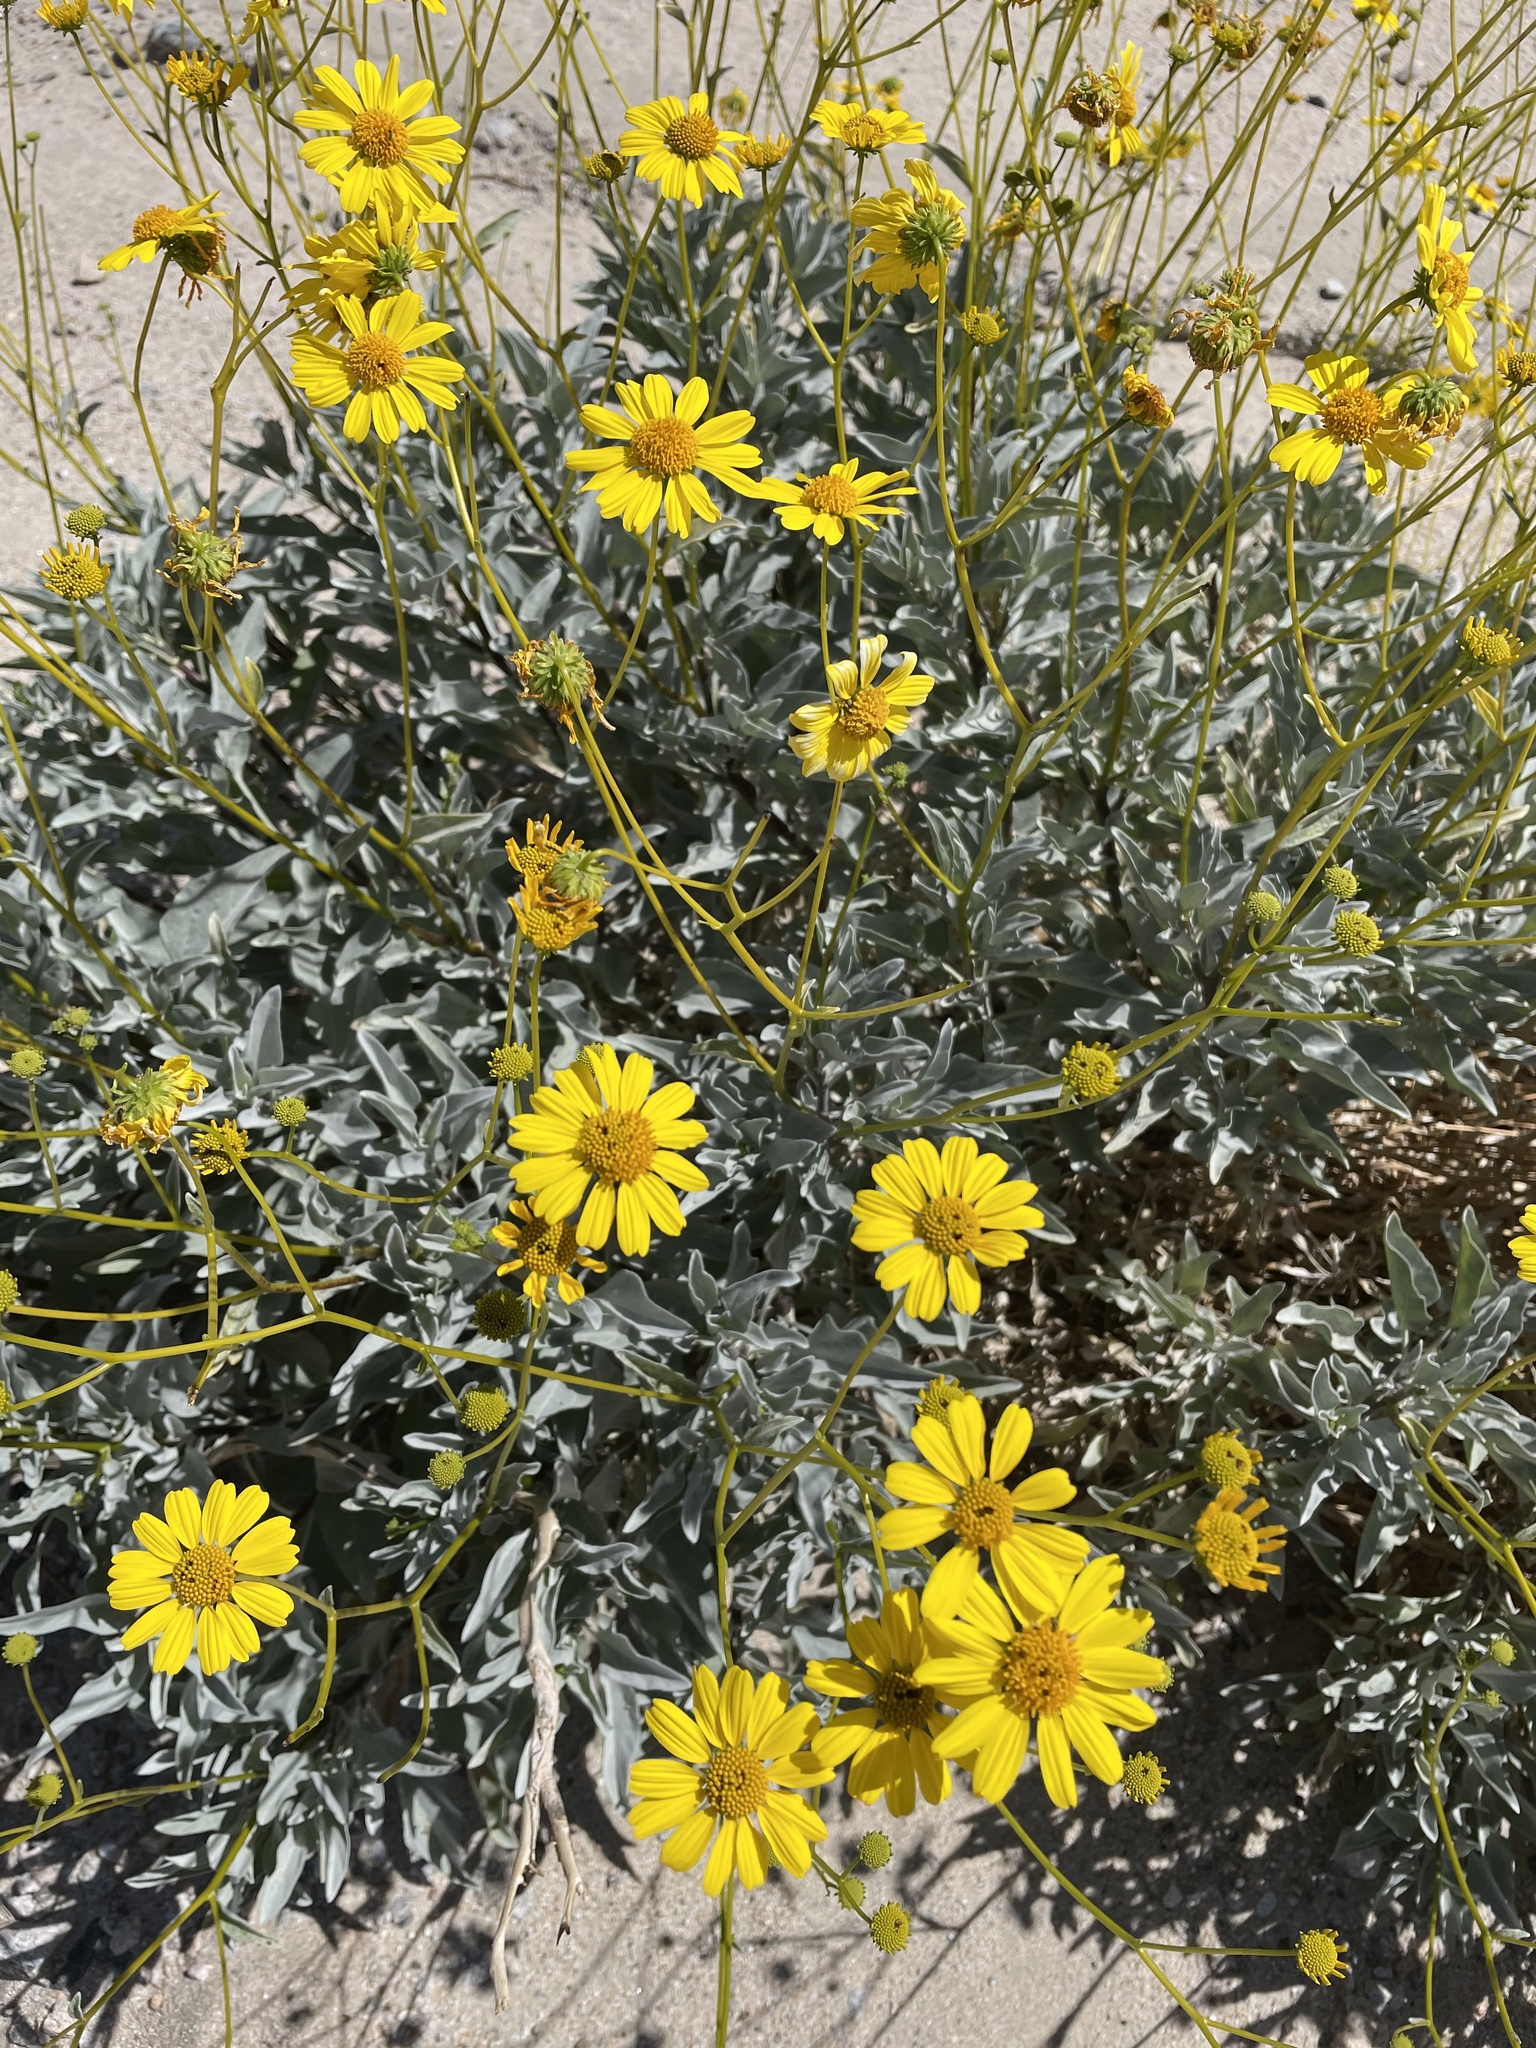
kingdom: Plantae
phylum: Tracheophyta
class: Magnoliopsida
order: Asterales
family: Asteraceae
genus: Encelia
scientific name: Encelia farinosa
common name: Brittlebush
